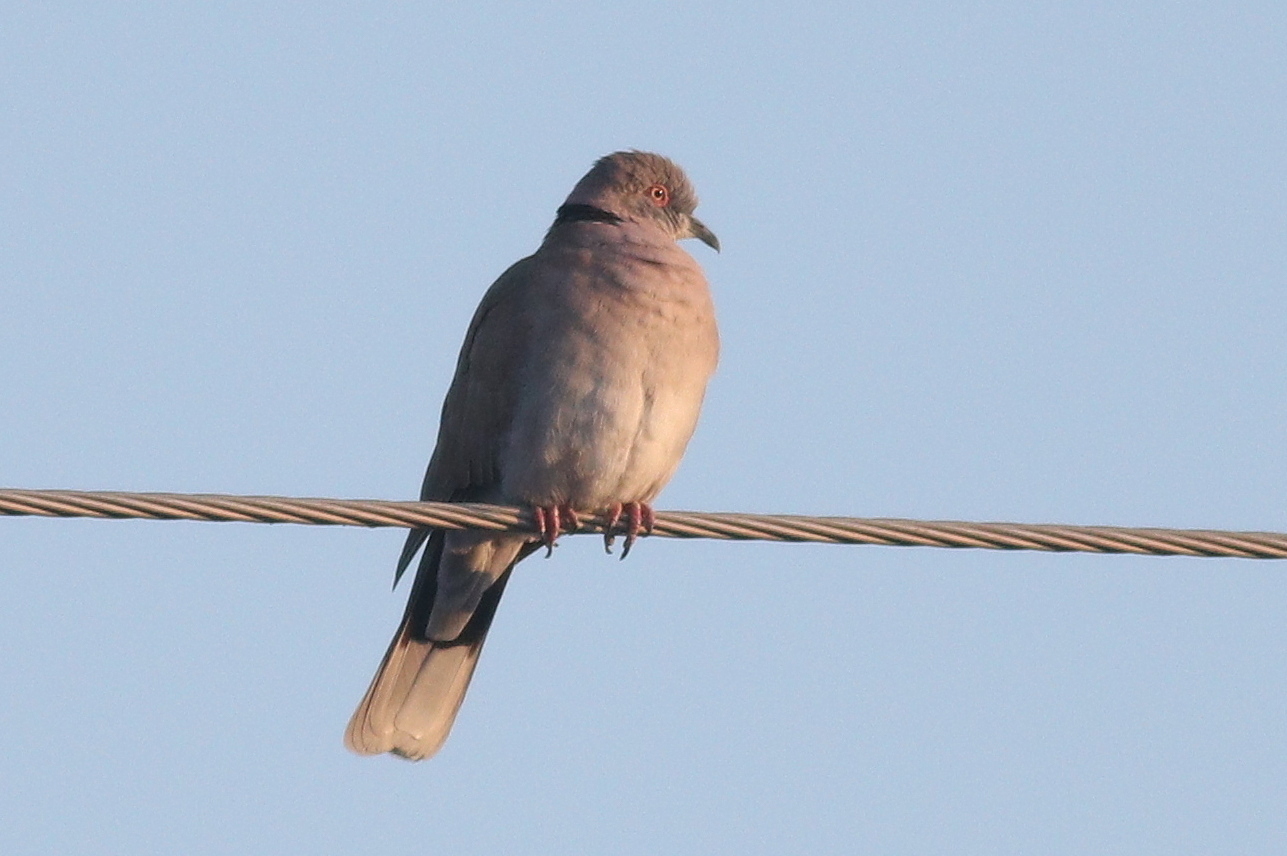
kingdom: Animalia
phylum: Chordata
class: Aves
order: Columbiformes
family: Columbidae
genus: Streptopelia
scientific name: Streptopelia decipiens
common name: Mourning collared dove
